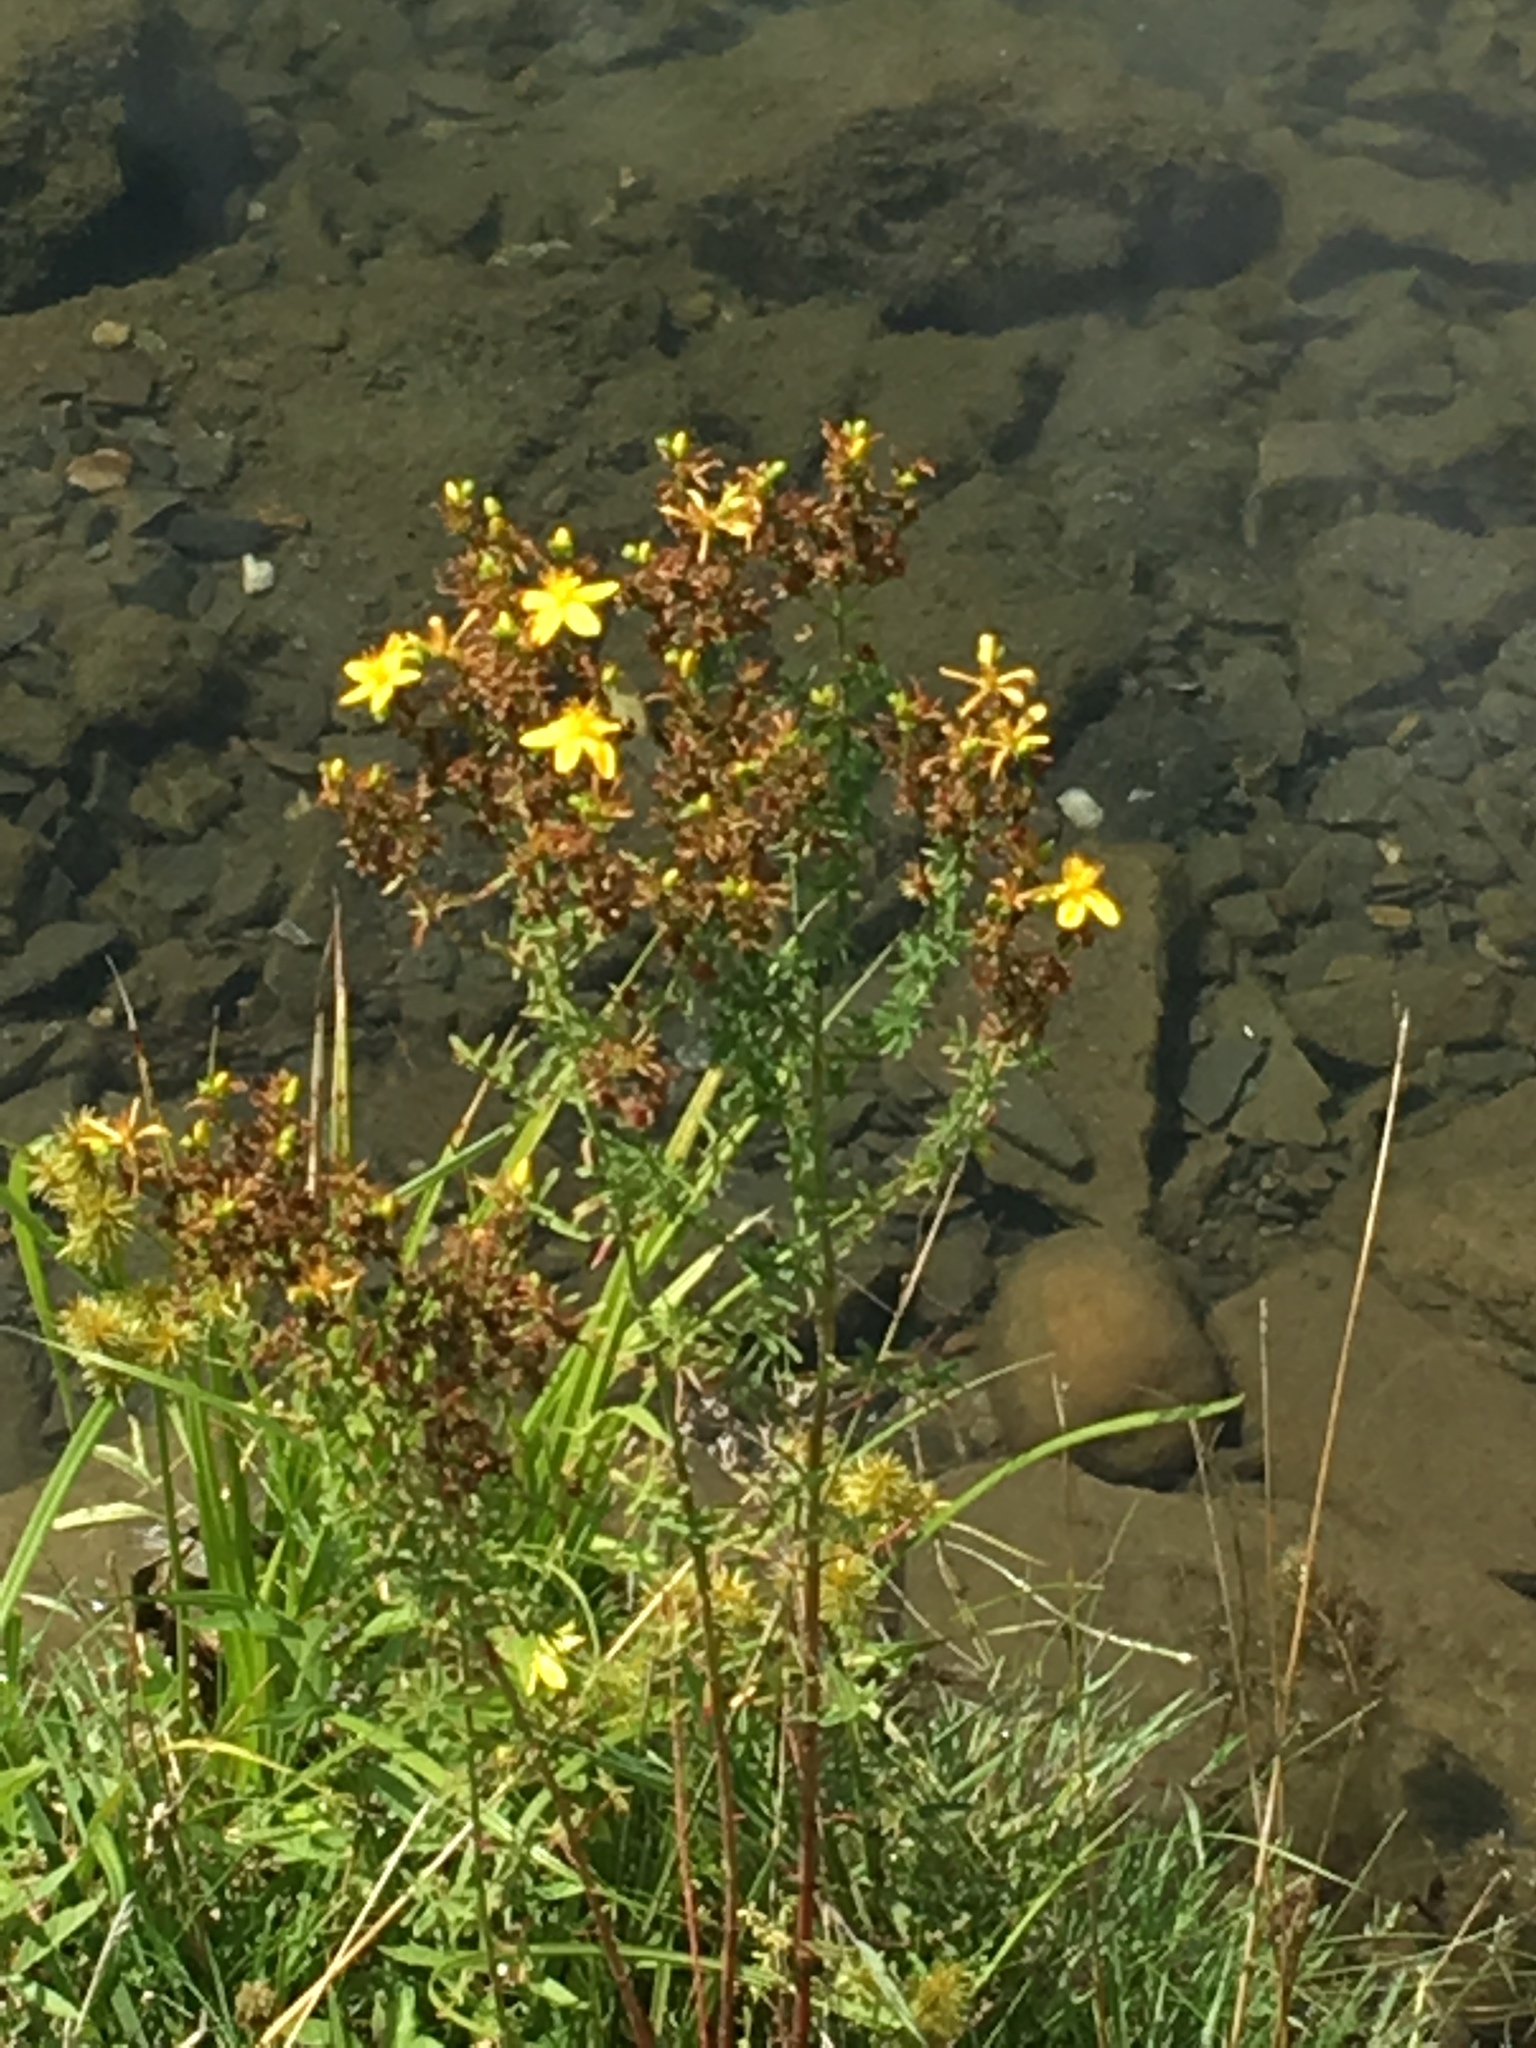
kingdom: Plantae
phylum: Tracheophyta
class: Magnoliopsida
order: Malpighiales
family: Hypericaceae
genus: Hypericum
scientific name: Hypericum perforatum
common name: Common st. johnswort
